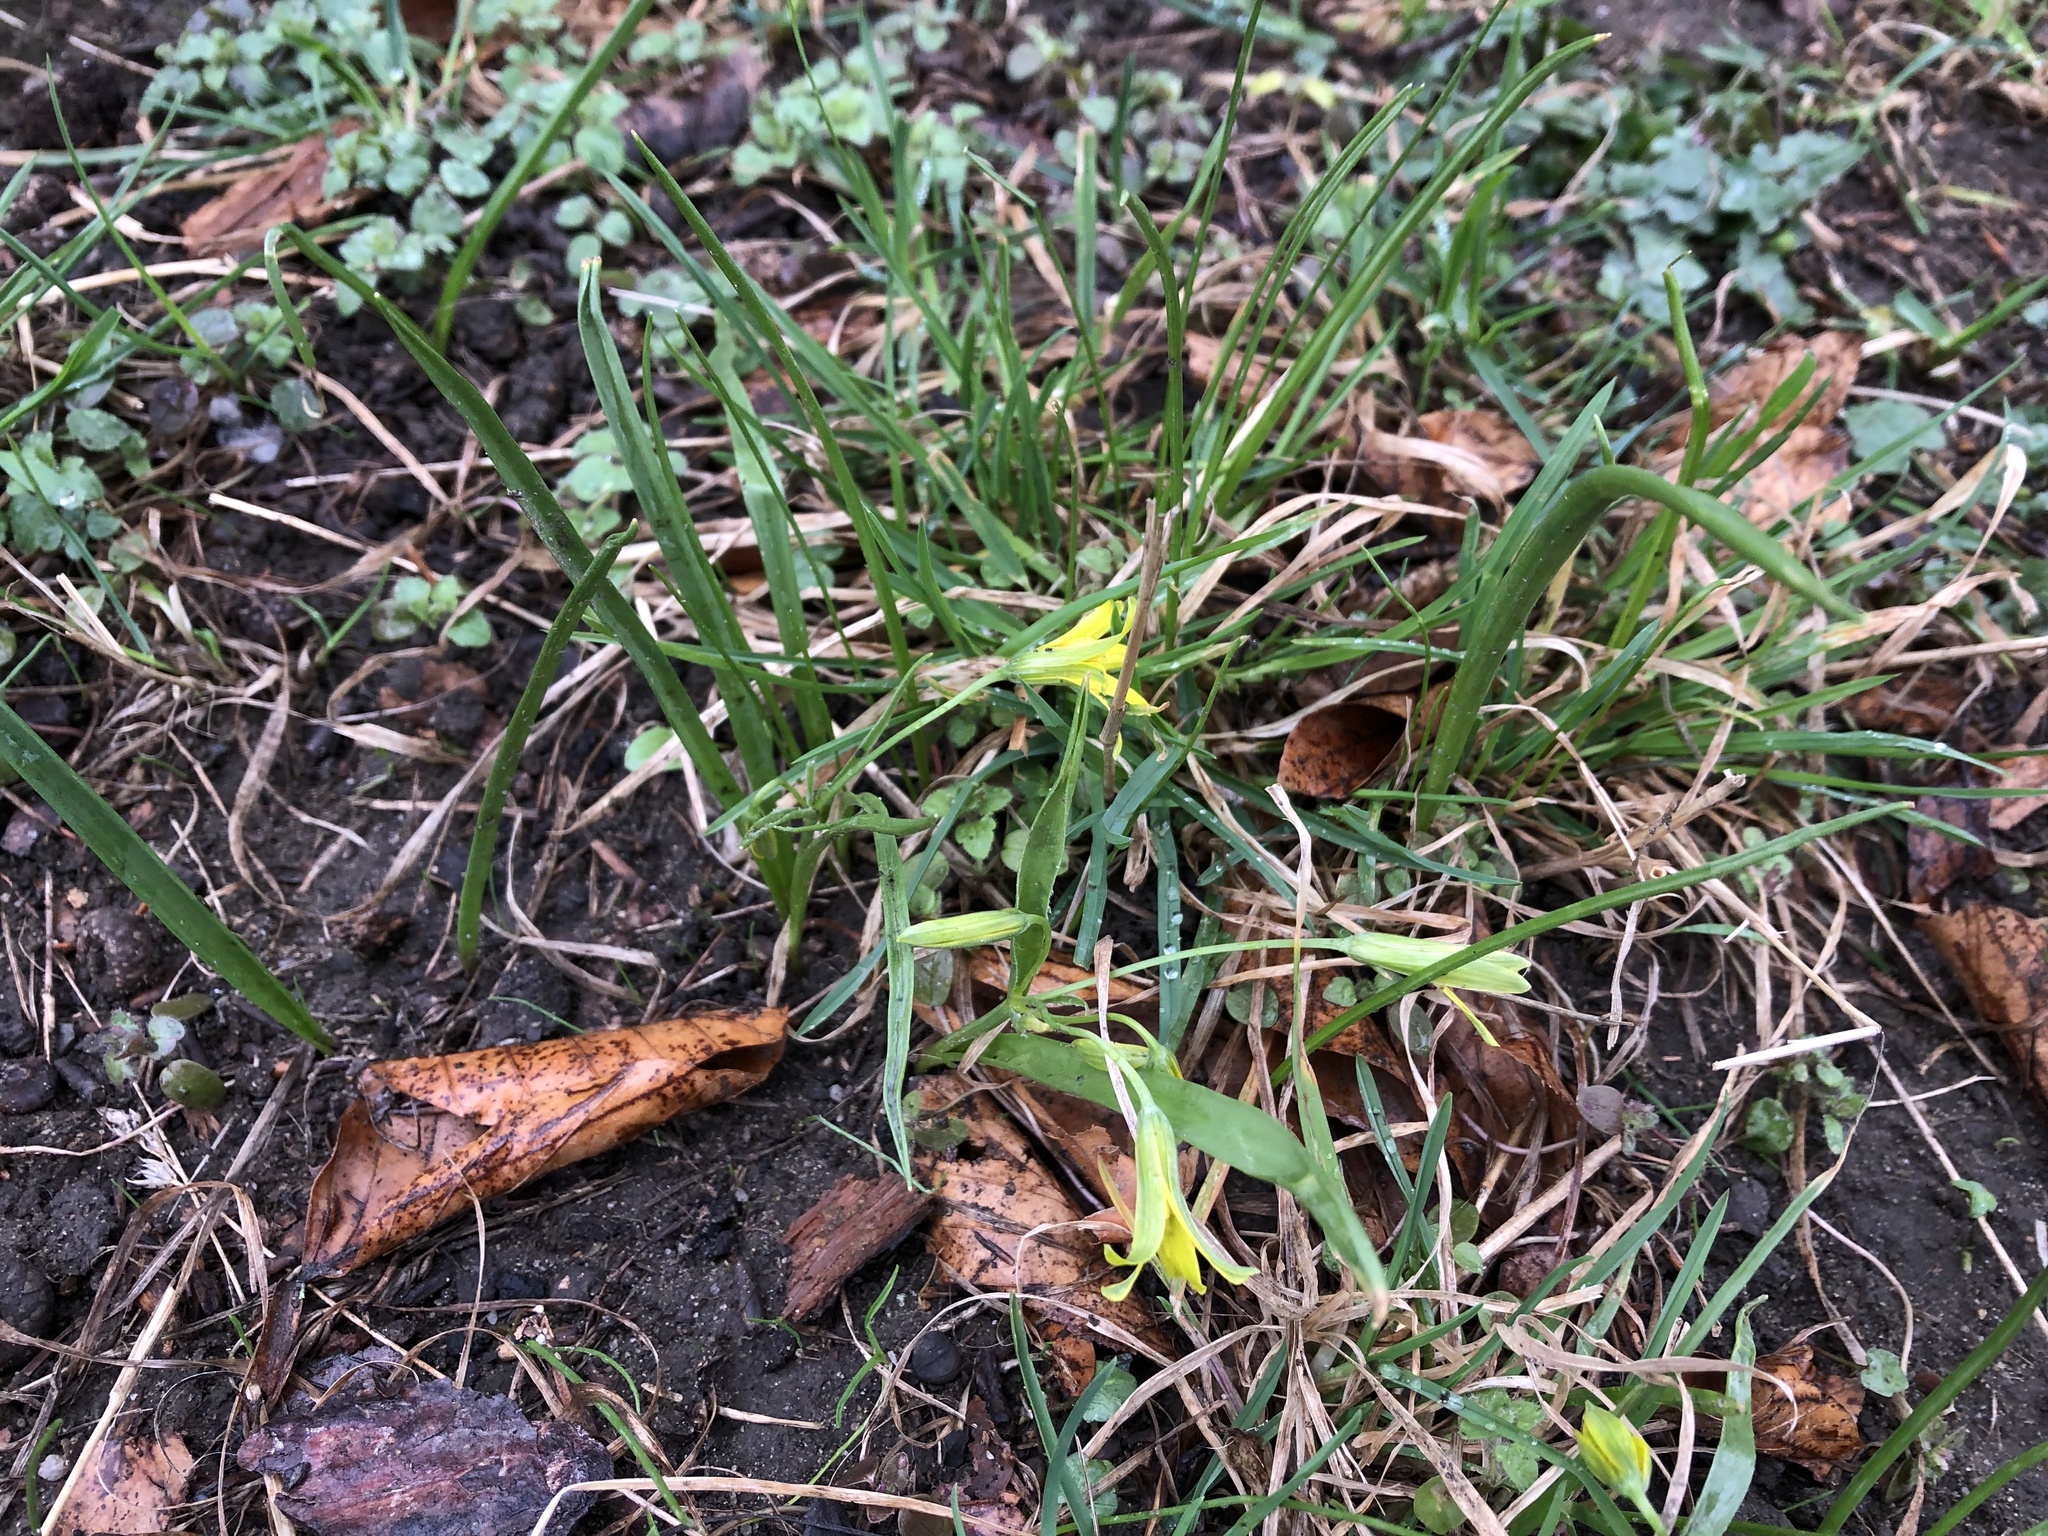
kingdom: Plantae
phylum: Tracheophyta
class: Liliopsida
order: Liliales
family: Liliaceae
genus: Gagea
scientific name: Gagea lutea
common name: Yellow star-of-bethlehem
